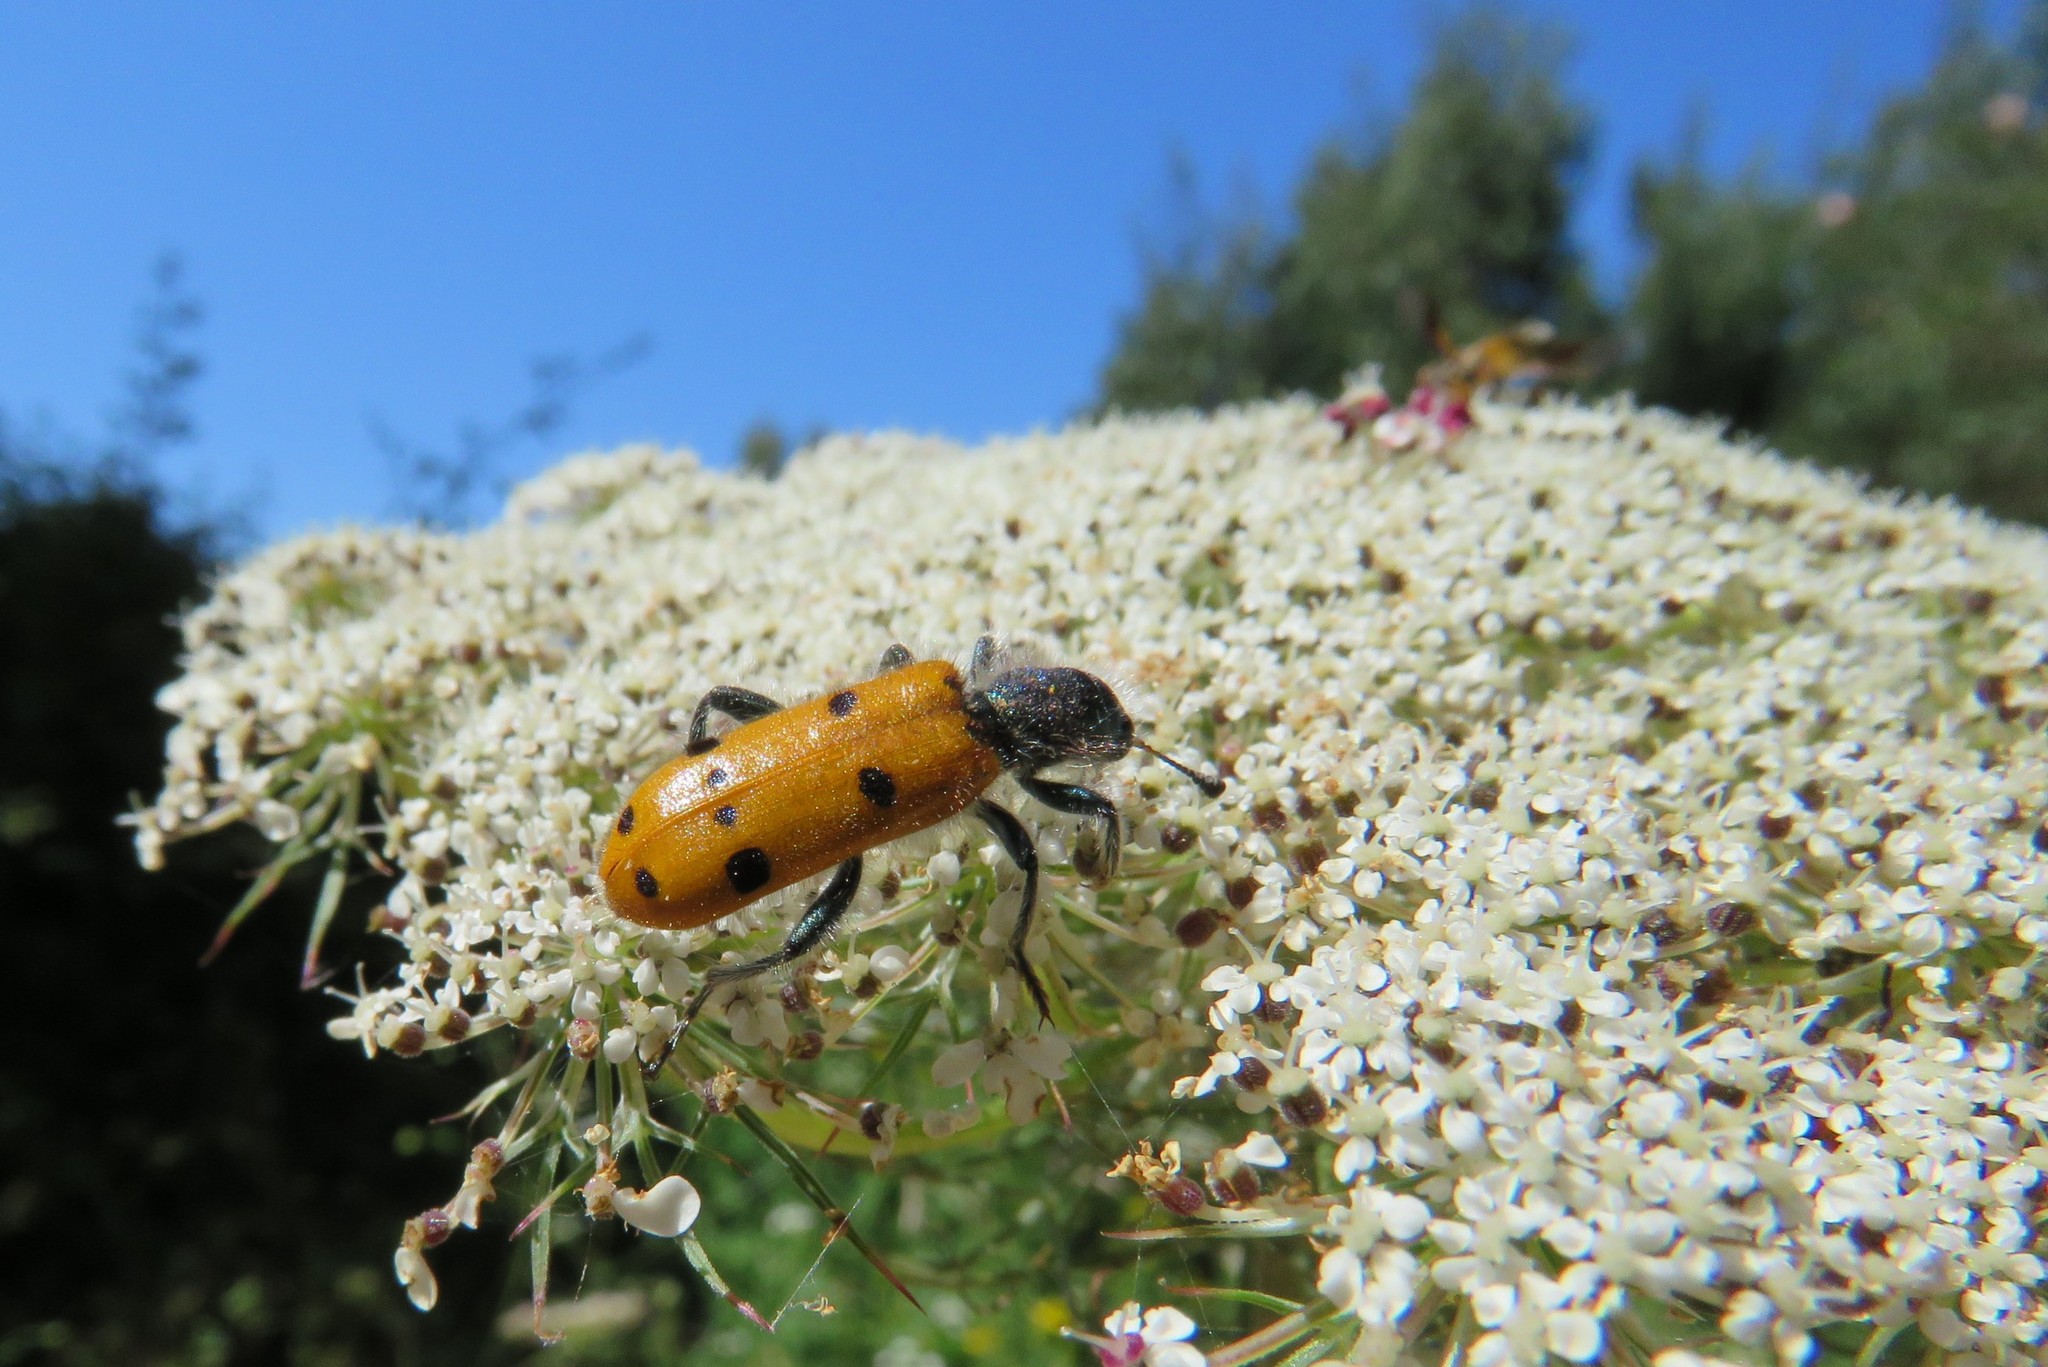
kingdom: Animalia
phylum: Arthropoda
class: Insecta
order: Coleoptera
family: Cleridae
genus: Trichodes
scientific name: Trichodes octopunctatus
